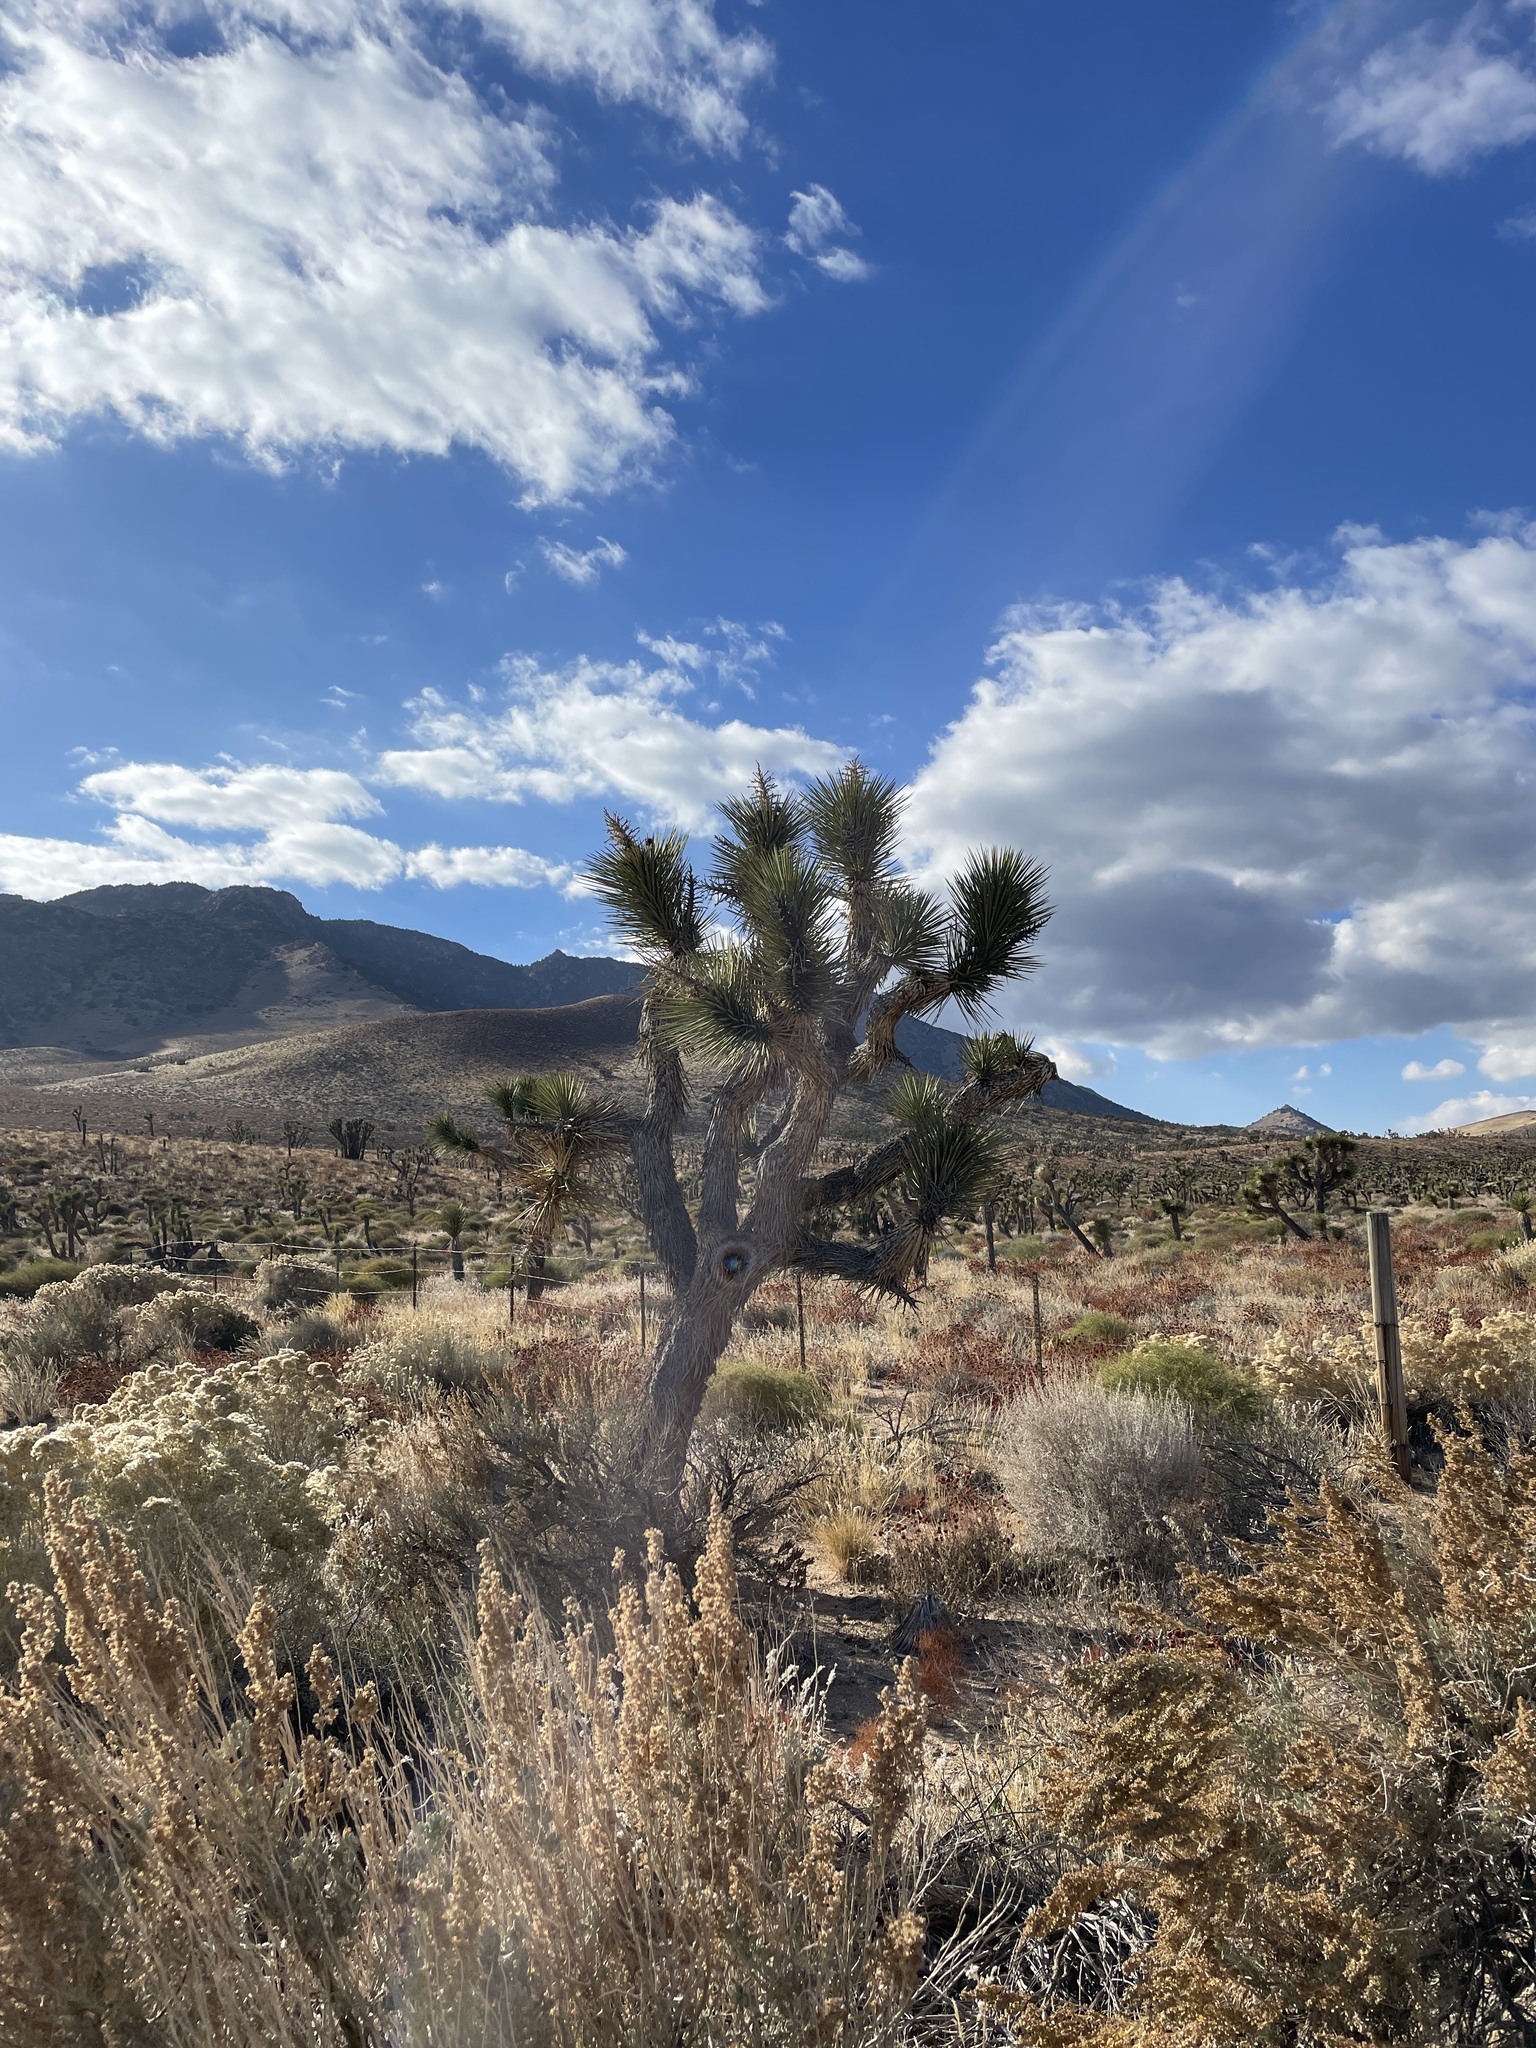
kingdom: Plantae
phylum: Tracheophyta
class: Liliopsida
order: Asparagales
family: Asparagaceae
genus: Yucca
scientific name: Yucca brevifolia
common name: Joshua tree
